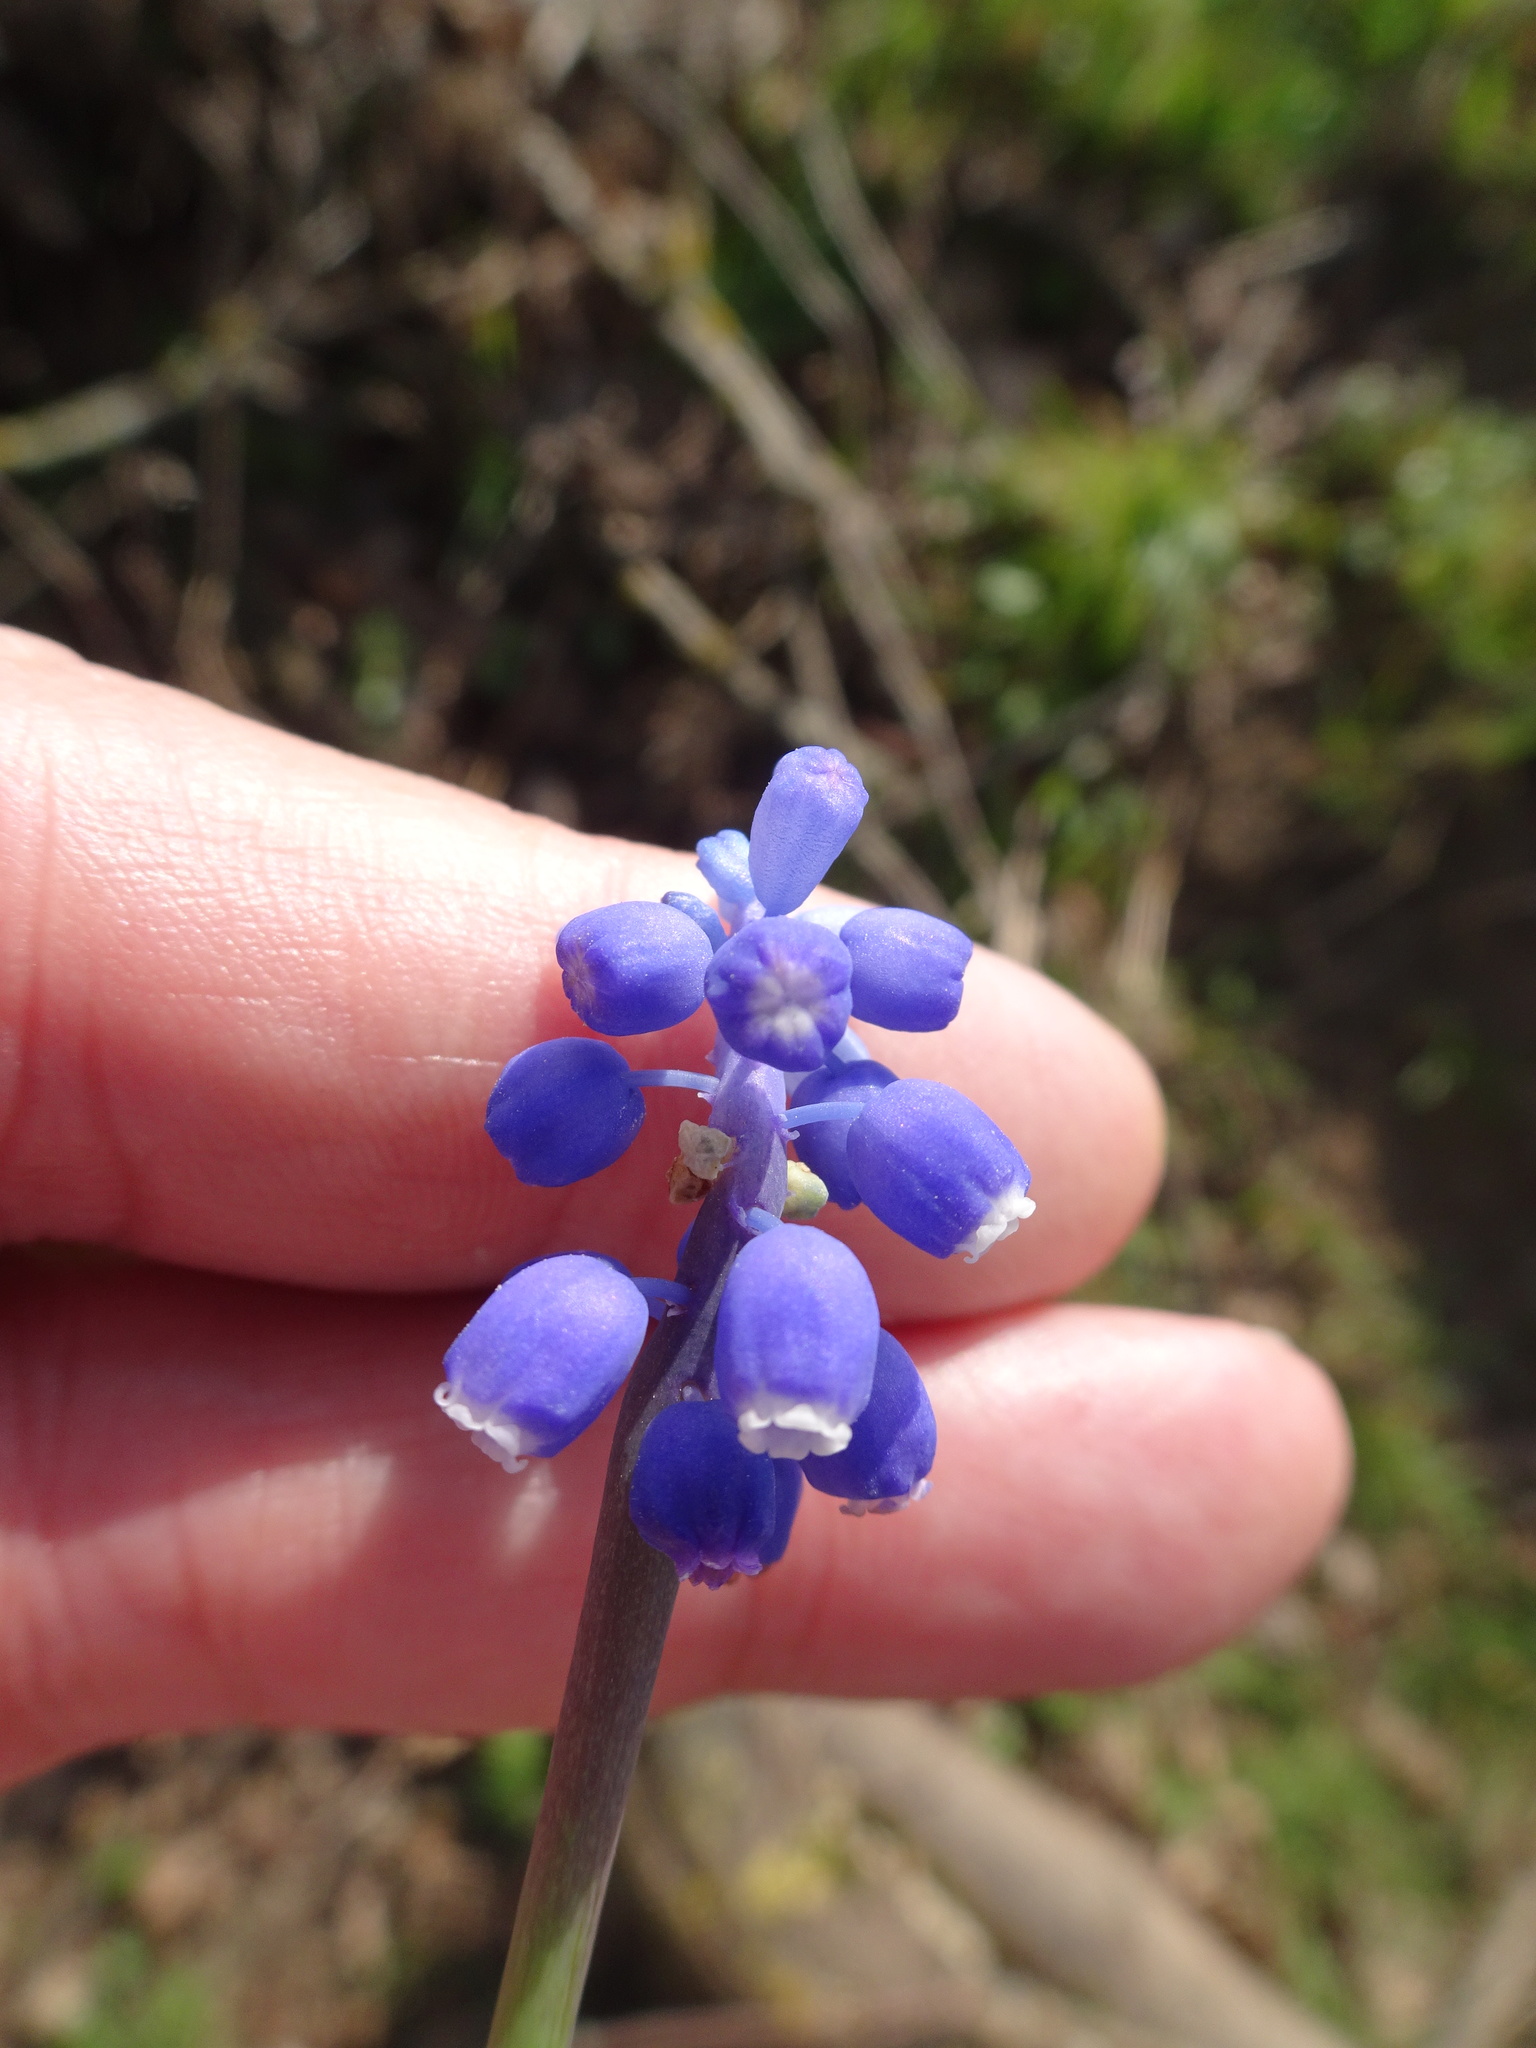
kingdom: Plantae
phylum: Tracheophyta
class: Liliopsida
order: Asparagales
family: Asparagaceae
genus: Muscari
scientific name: Muscari armeniacum
